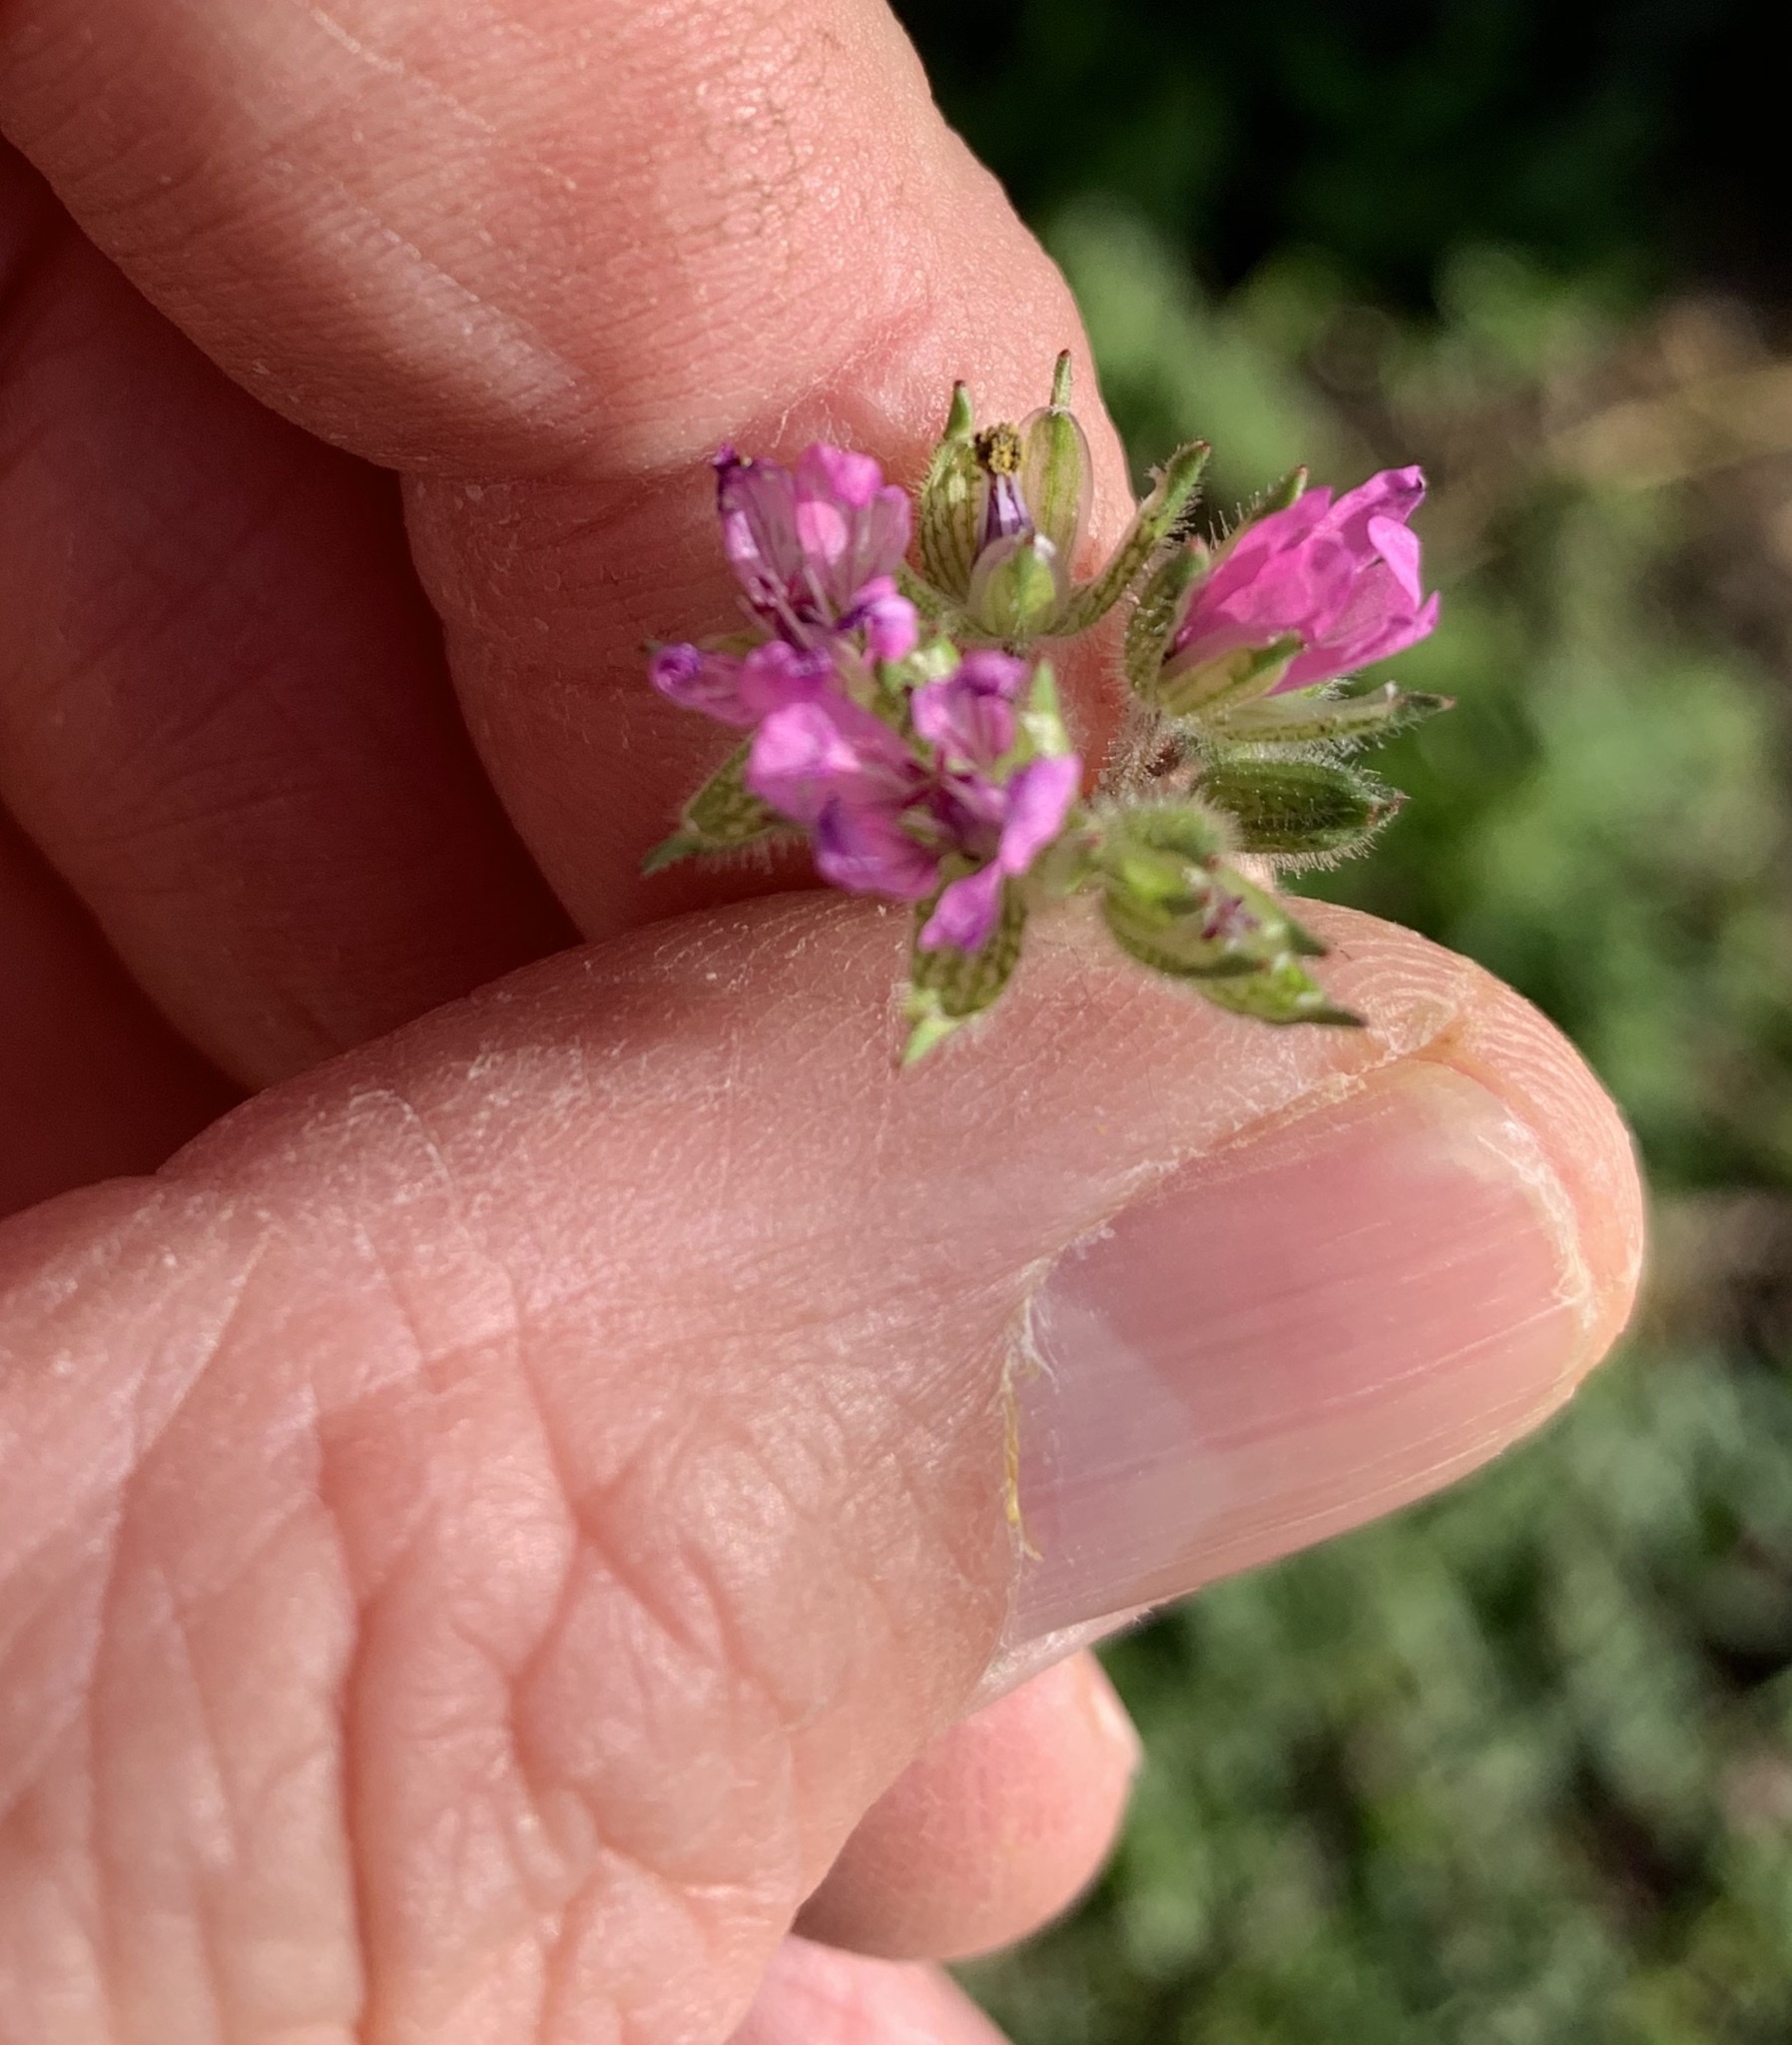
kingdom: Plantae
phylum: Tracheophyta
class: Magnoliopsida
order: Geraniales
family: Geraniaceae
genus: Geranium
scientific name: Geranium molle
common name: Dove's-foot crane's-bill
